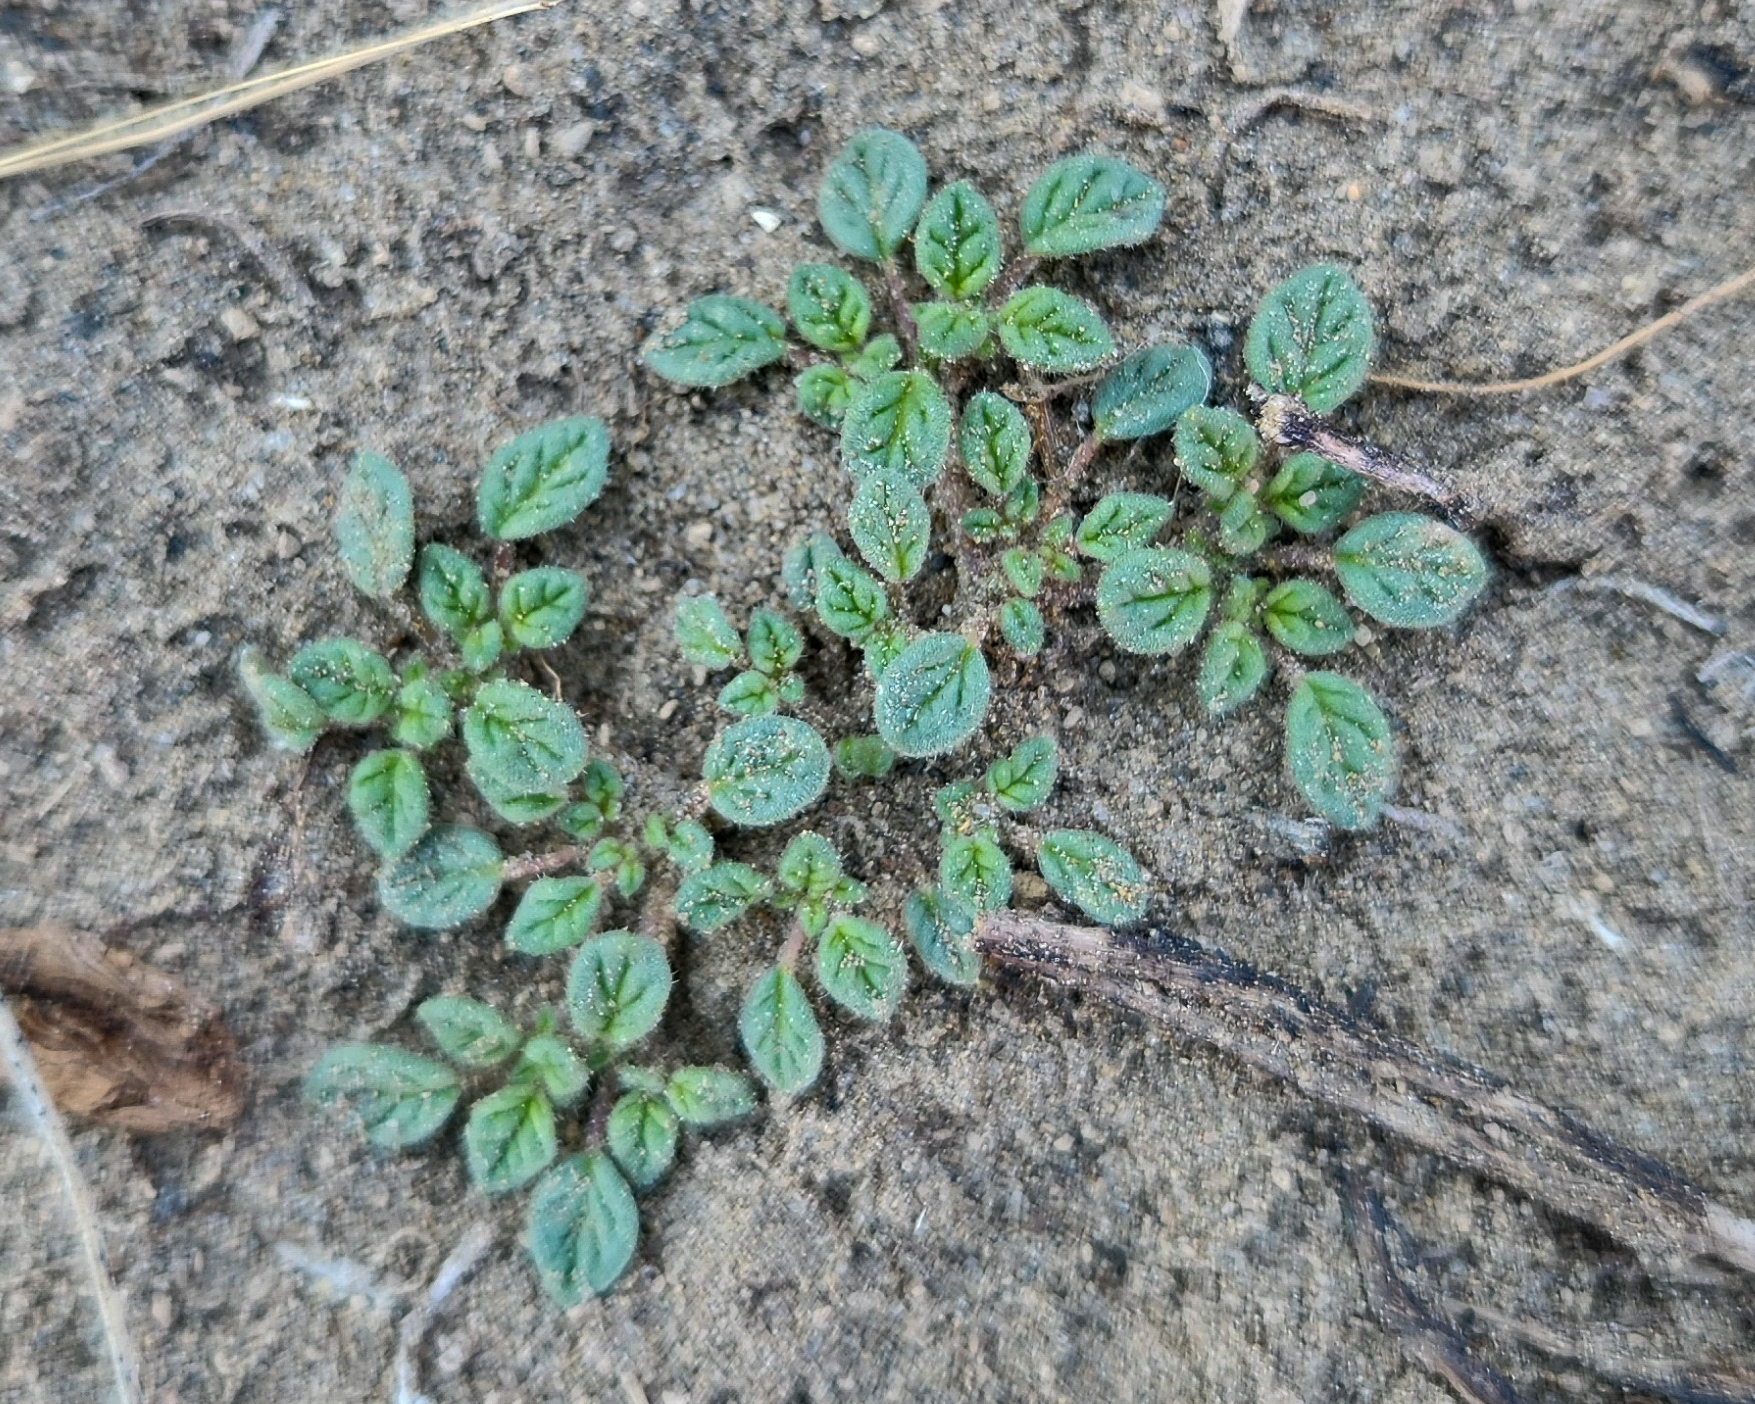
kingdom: Plantae
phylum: Tracheophyta
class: Magnoliopsida
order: Boraginales
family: Ehretiaceae
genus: Tiquilia
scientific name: Tiquilia nuttallii
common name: Rosette tiquilia
